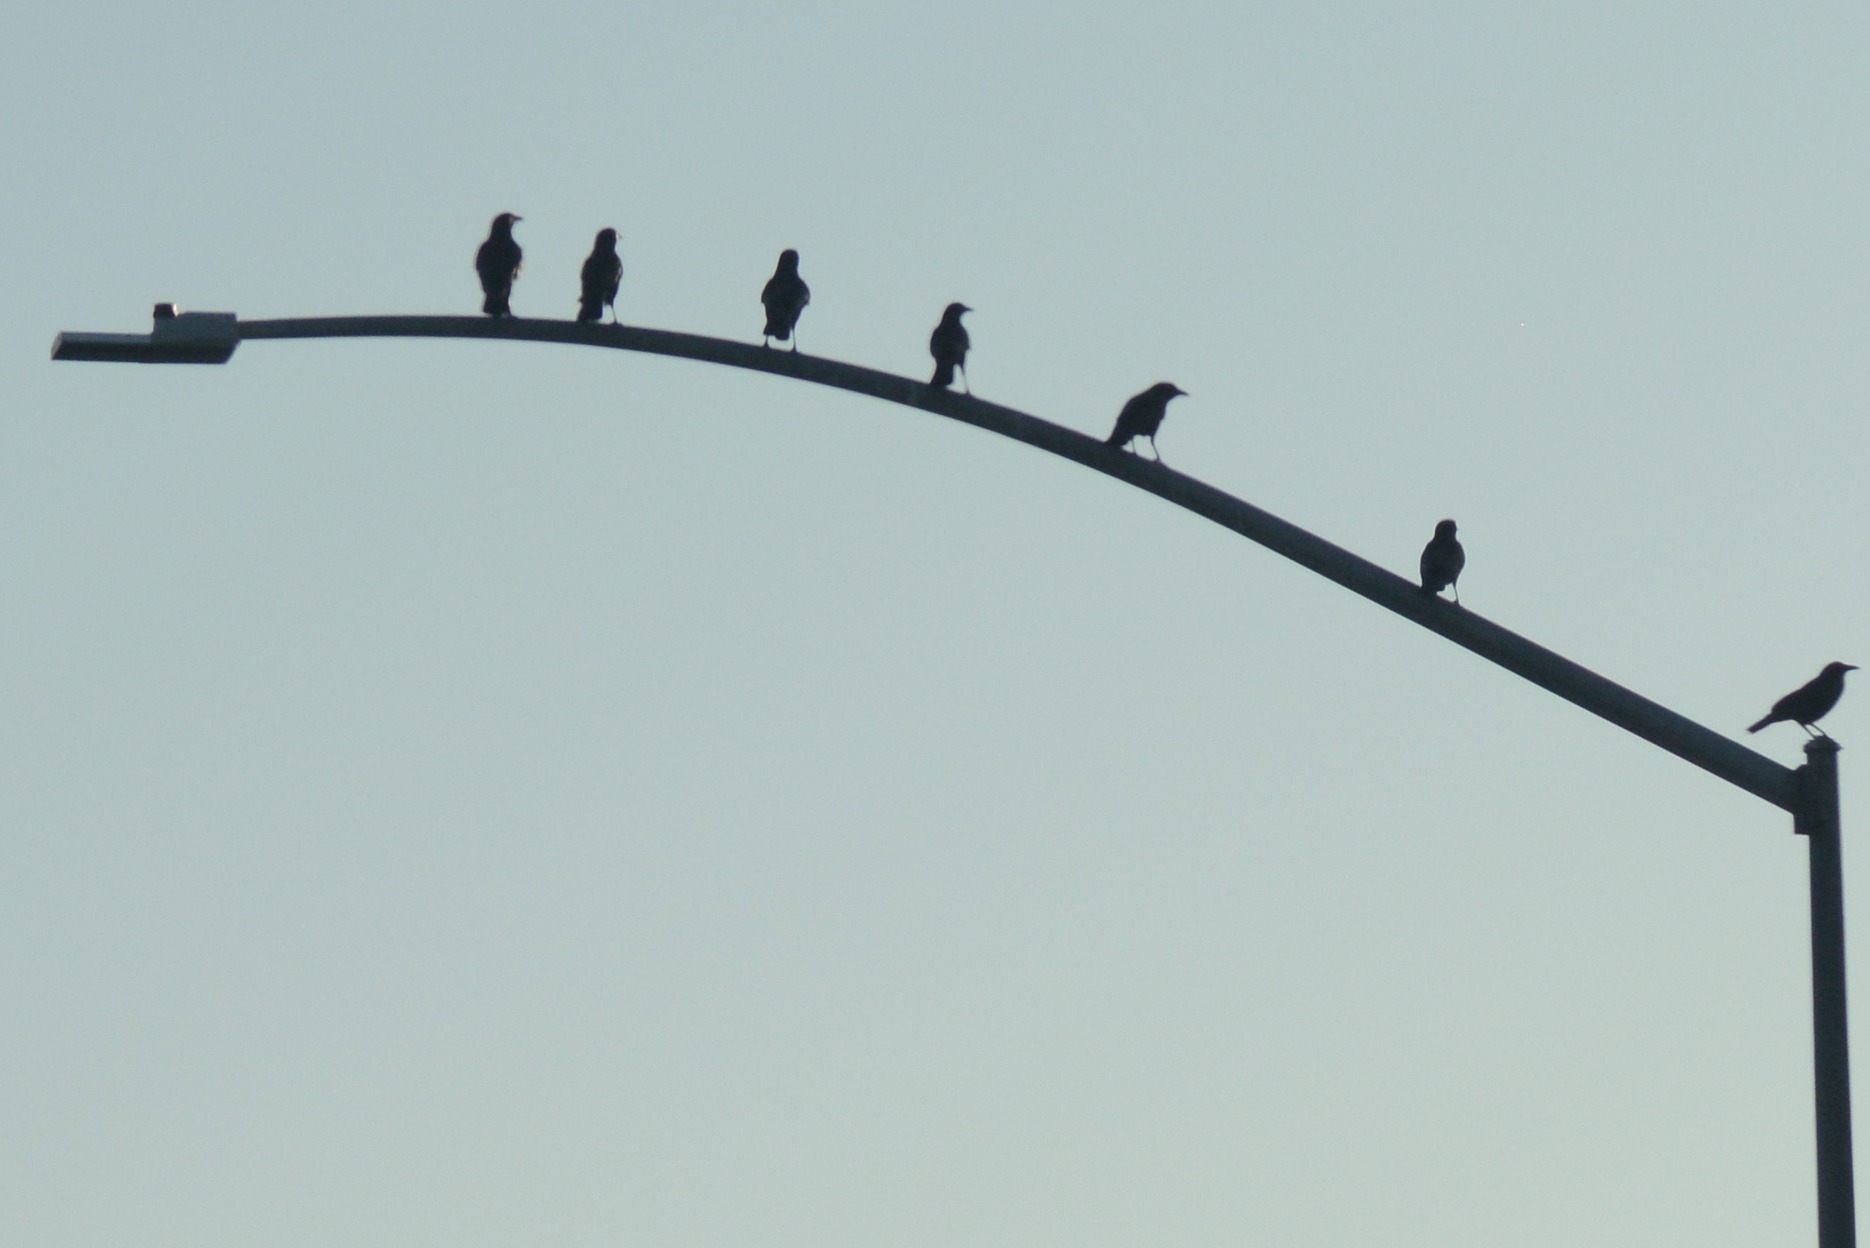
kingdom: Animalia
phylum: Chordata
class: Aves
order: Passeriformes
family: Corvidae
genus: Corvus
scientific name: Corvus brachyrhynchos
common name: American crow
